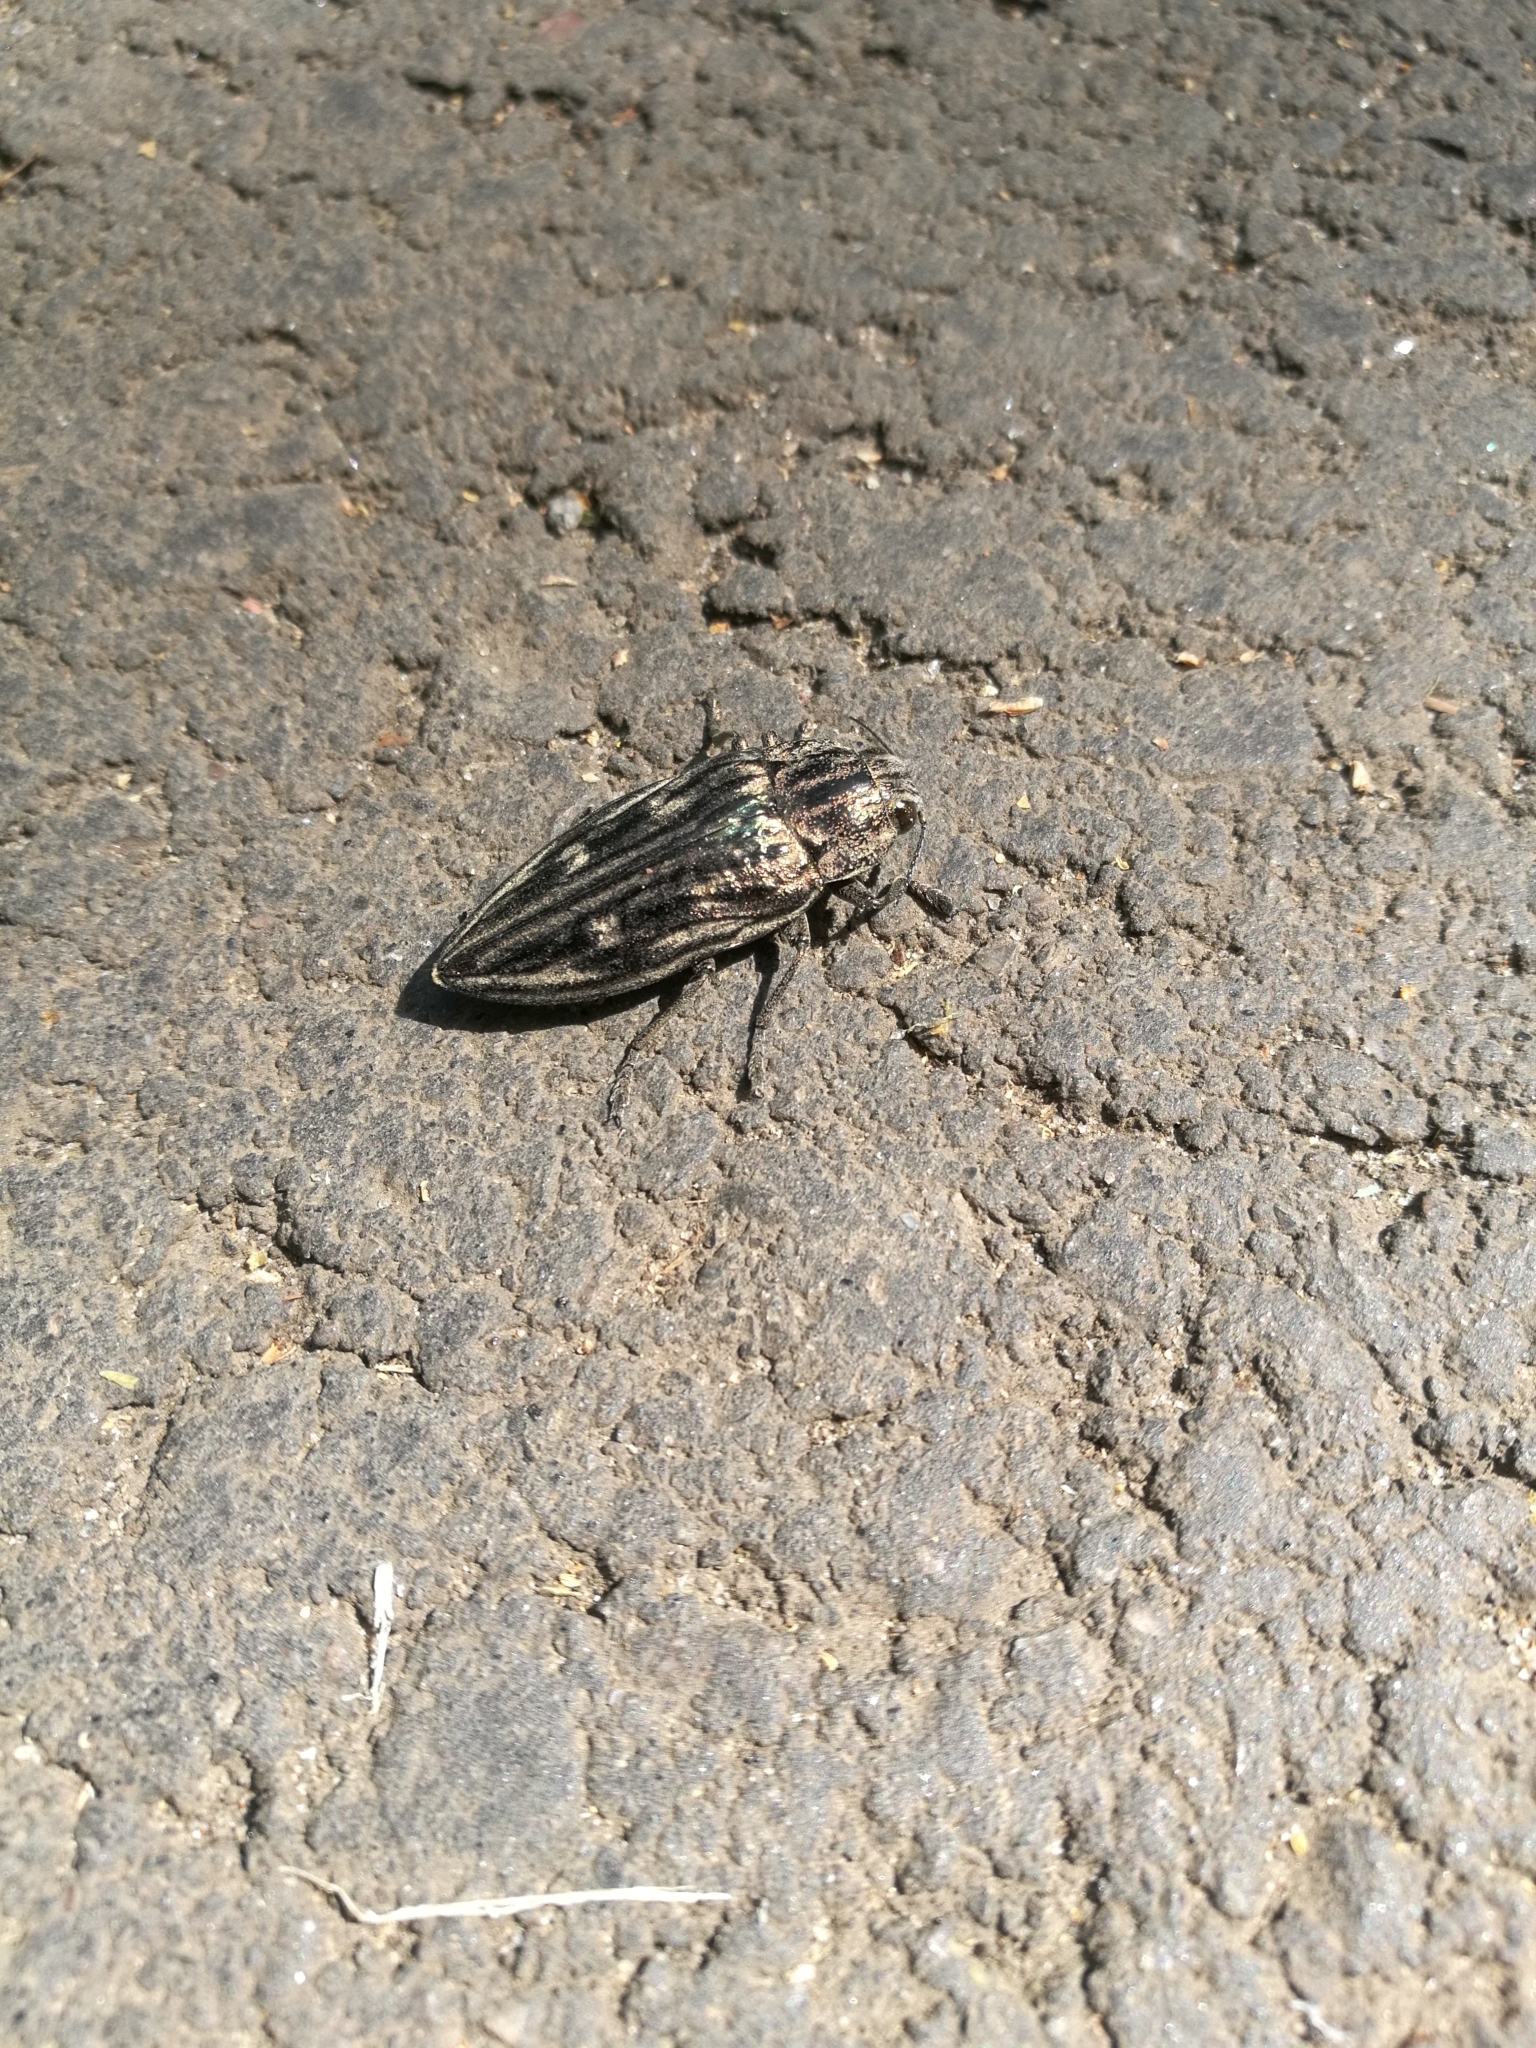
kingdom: Animalia
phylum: Arthropoda
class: Insecta
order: Coleoptera
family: Buprestidae
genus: Chalcophora
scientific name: Chalcophora mariana
